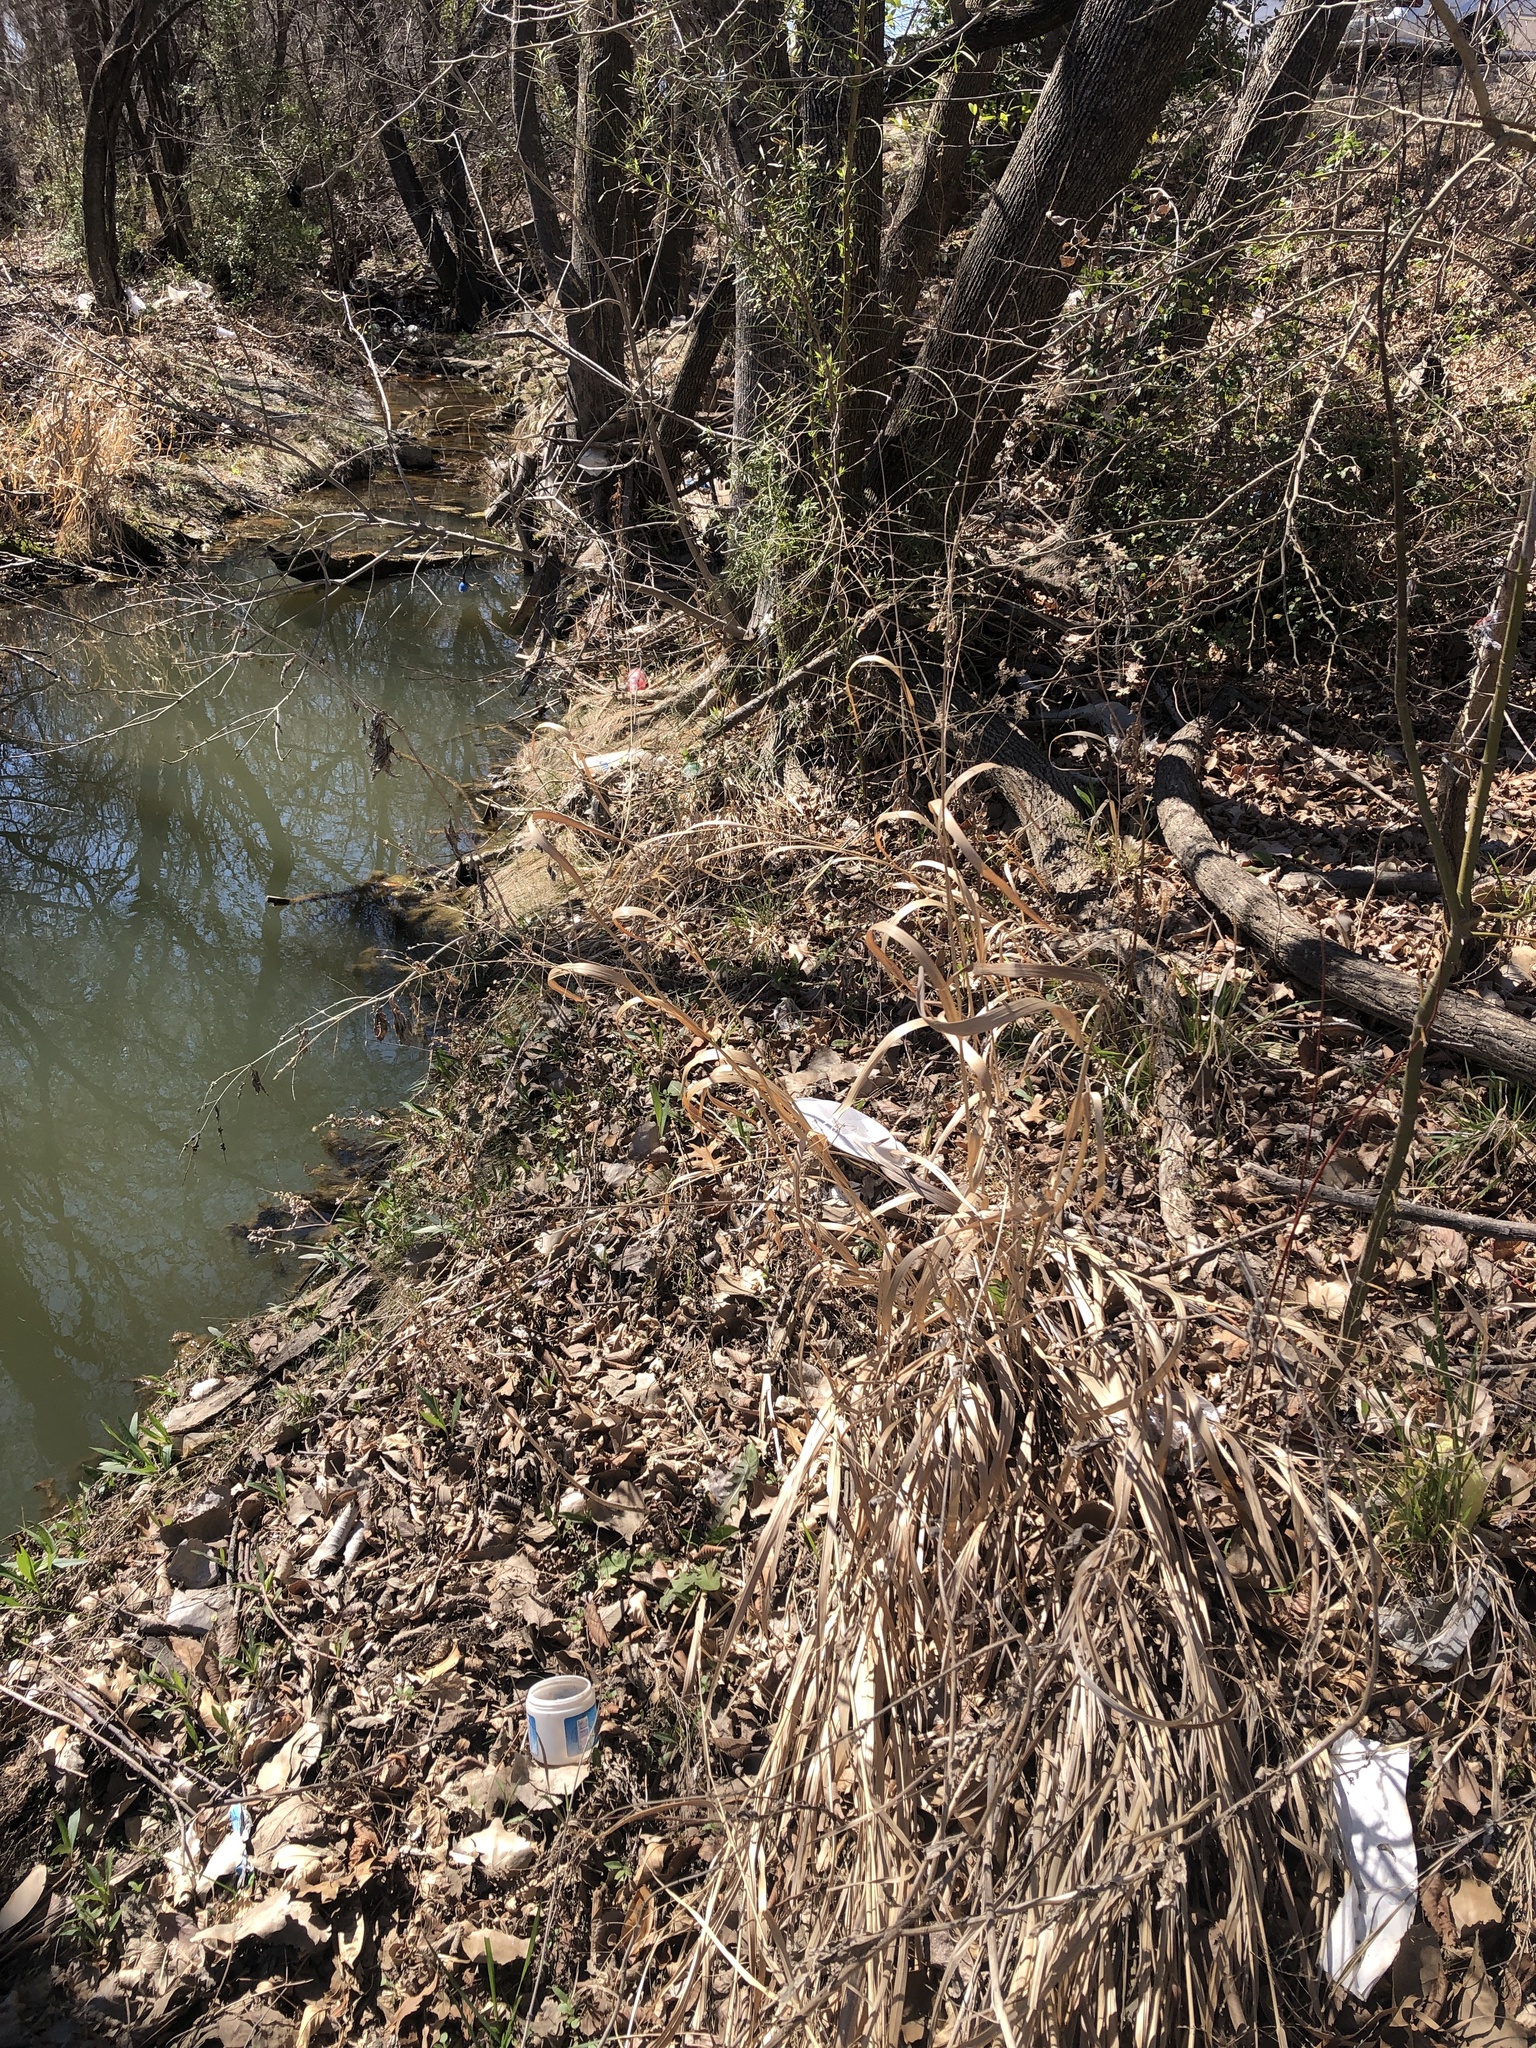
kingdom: Plantae
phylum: Tracheophyta
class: Liliopsida
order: Poales
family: Poaceae
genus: Panicum
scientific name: Panicum virgatum
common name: Switchgrass
